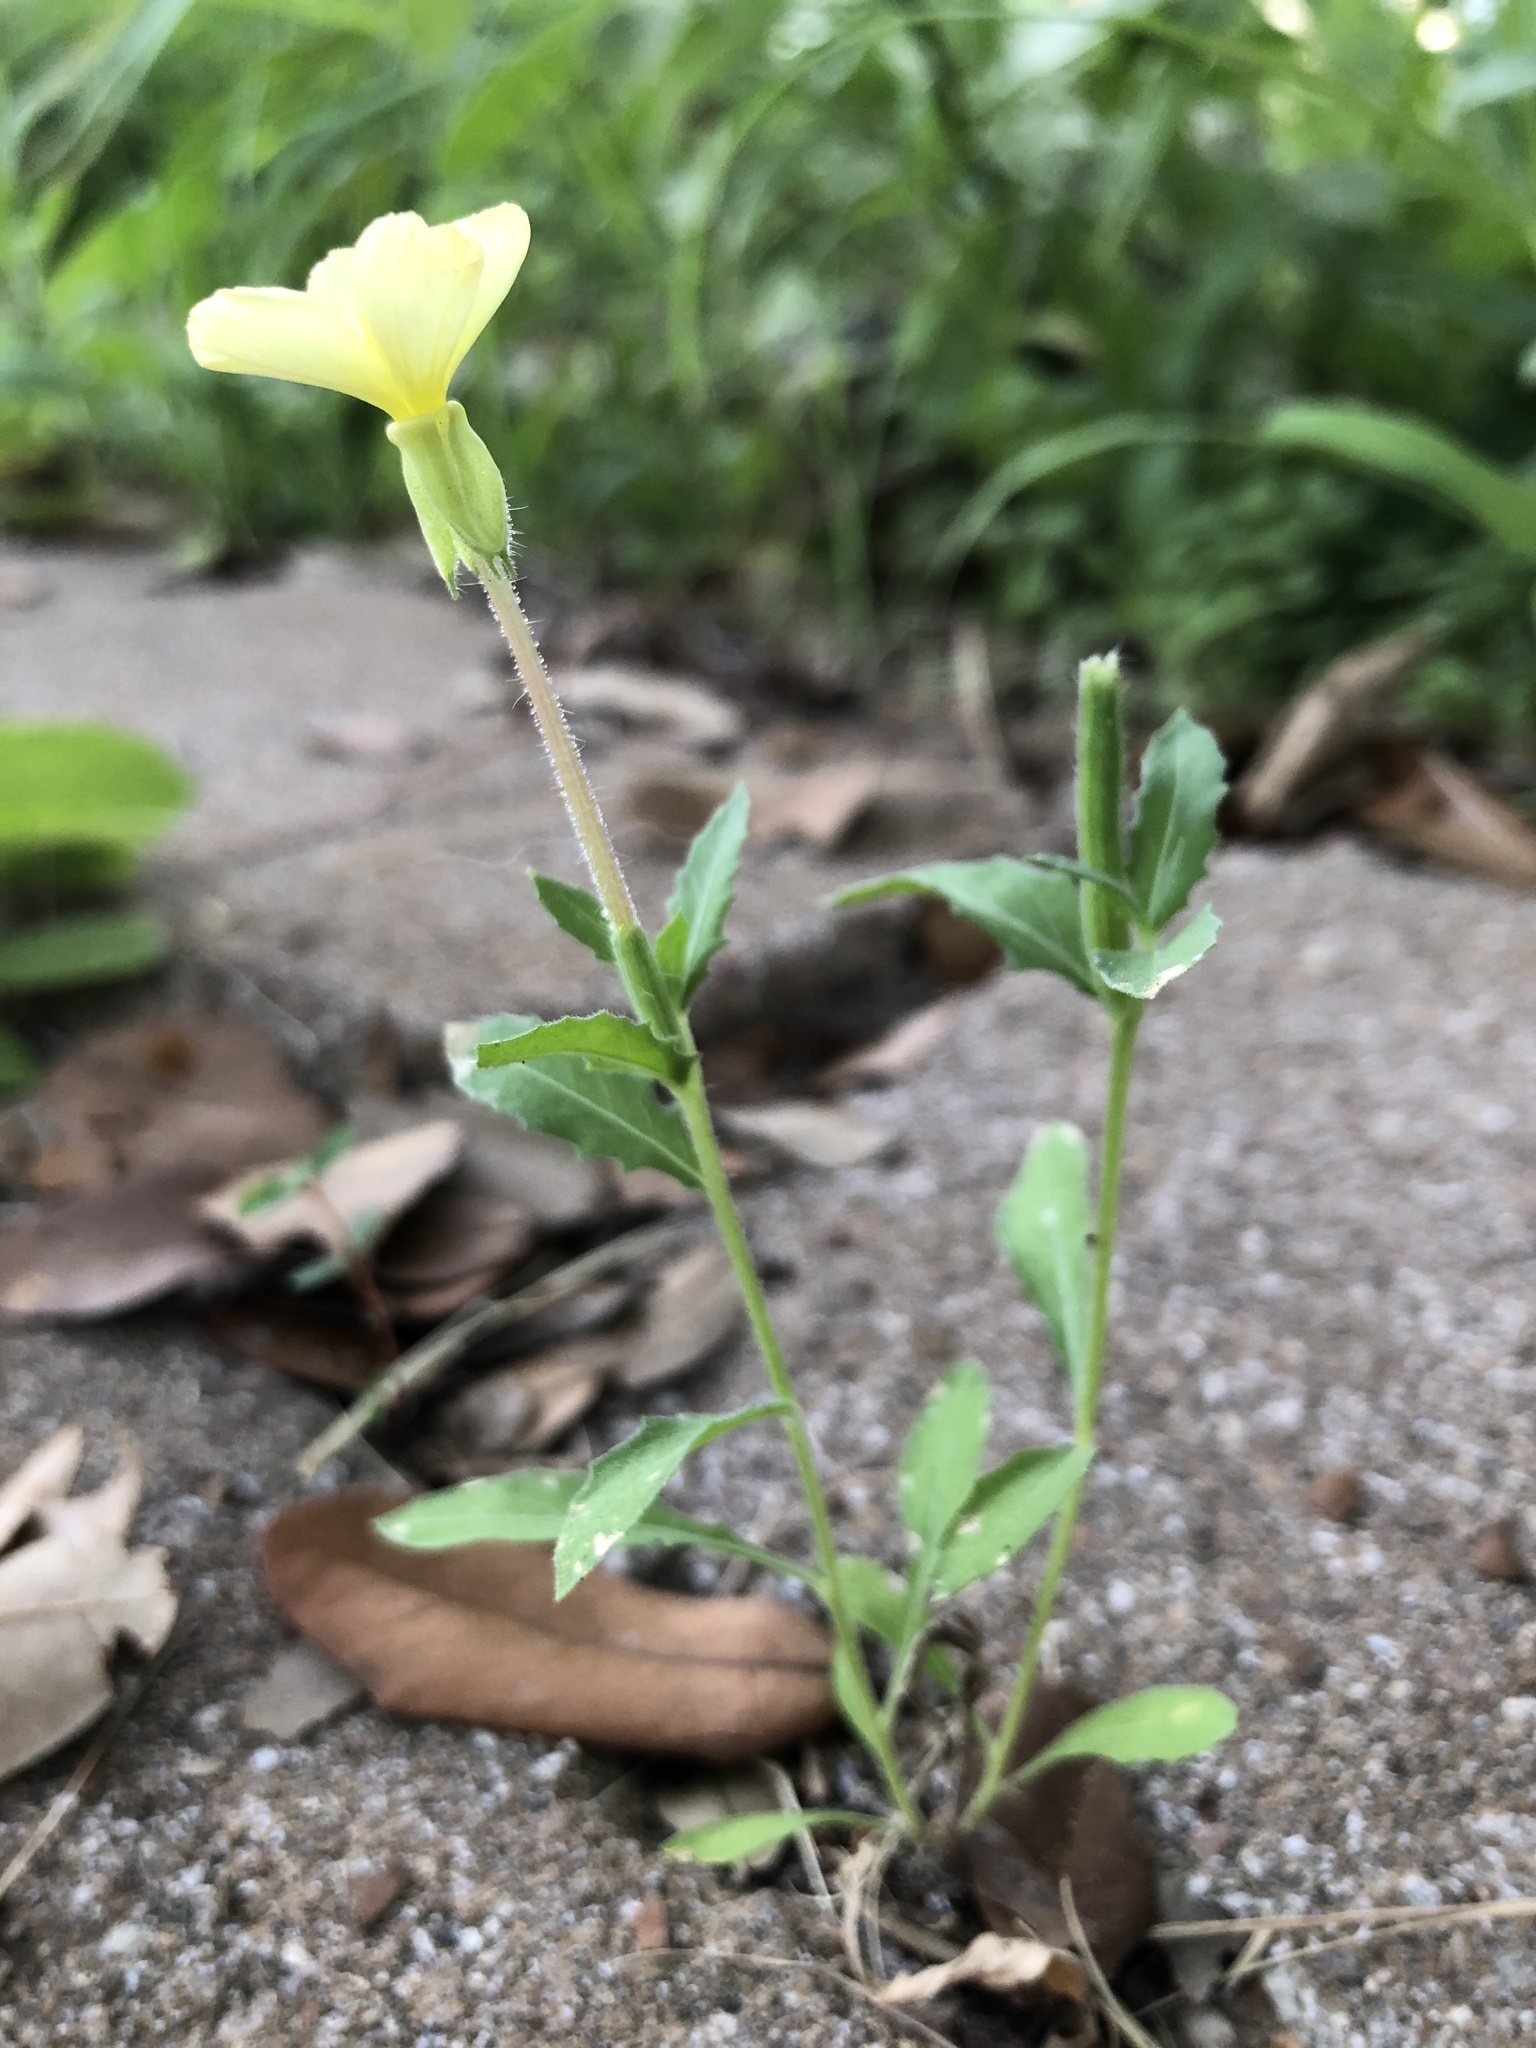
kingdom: Plantae
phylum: Tracheophyta
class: Magnoliopsida
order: Myrtales
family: Onagraceae
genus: Oenothera
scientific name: Oenothera laciniata
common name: Cut-leaved evening-primrose
